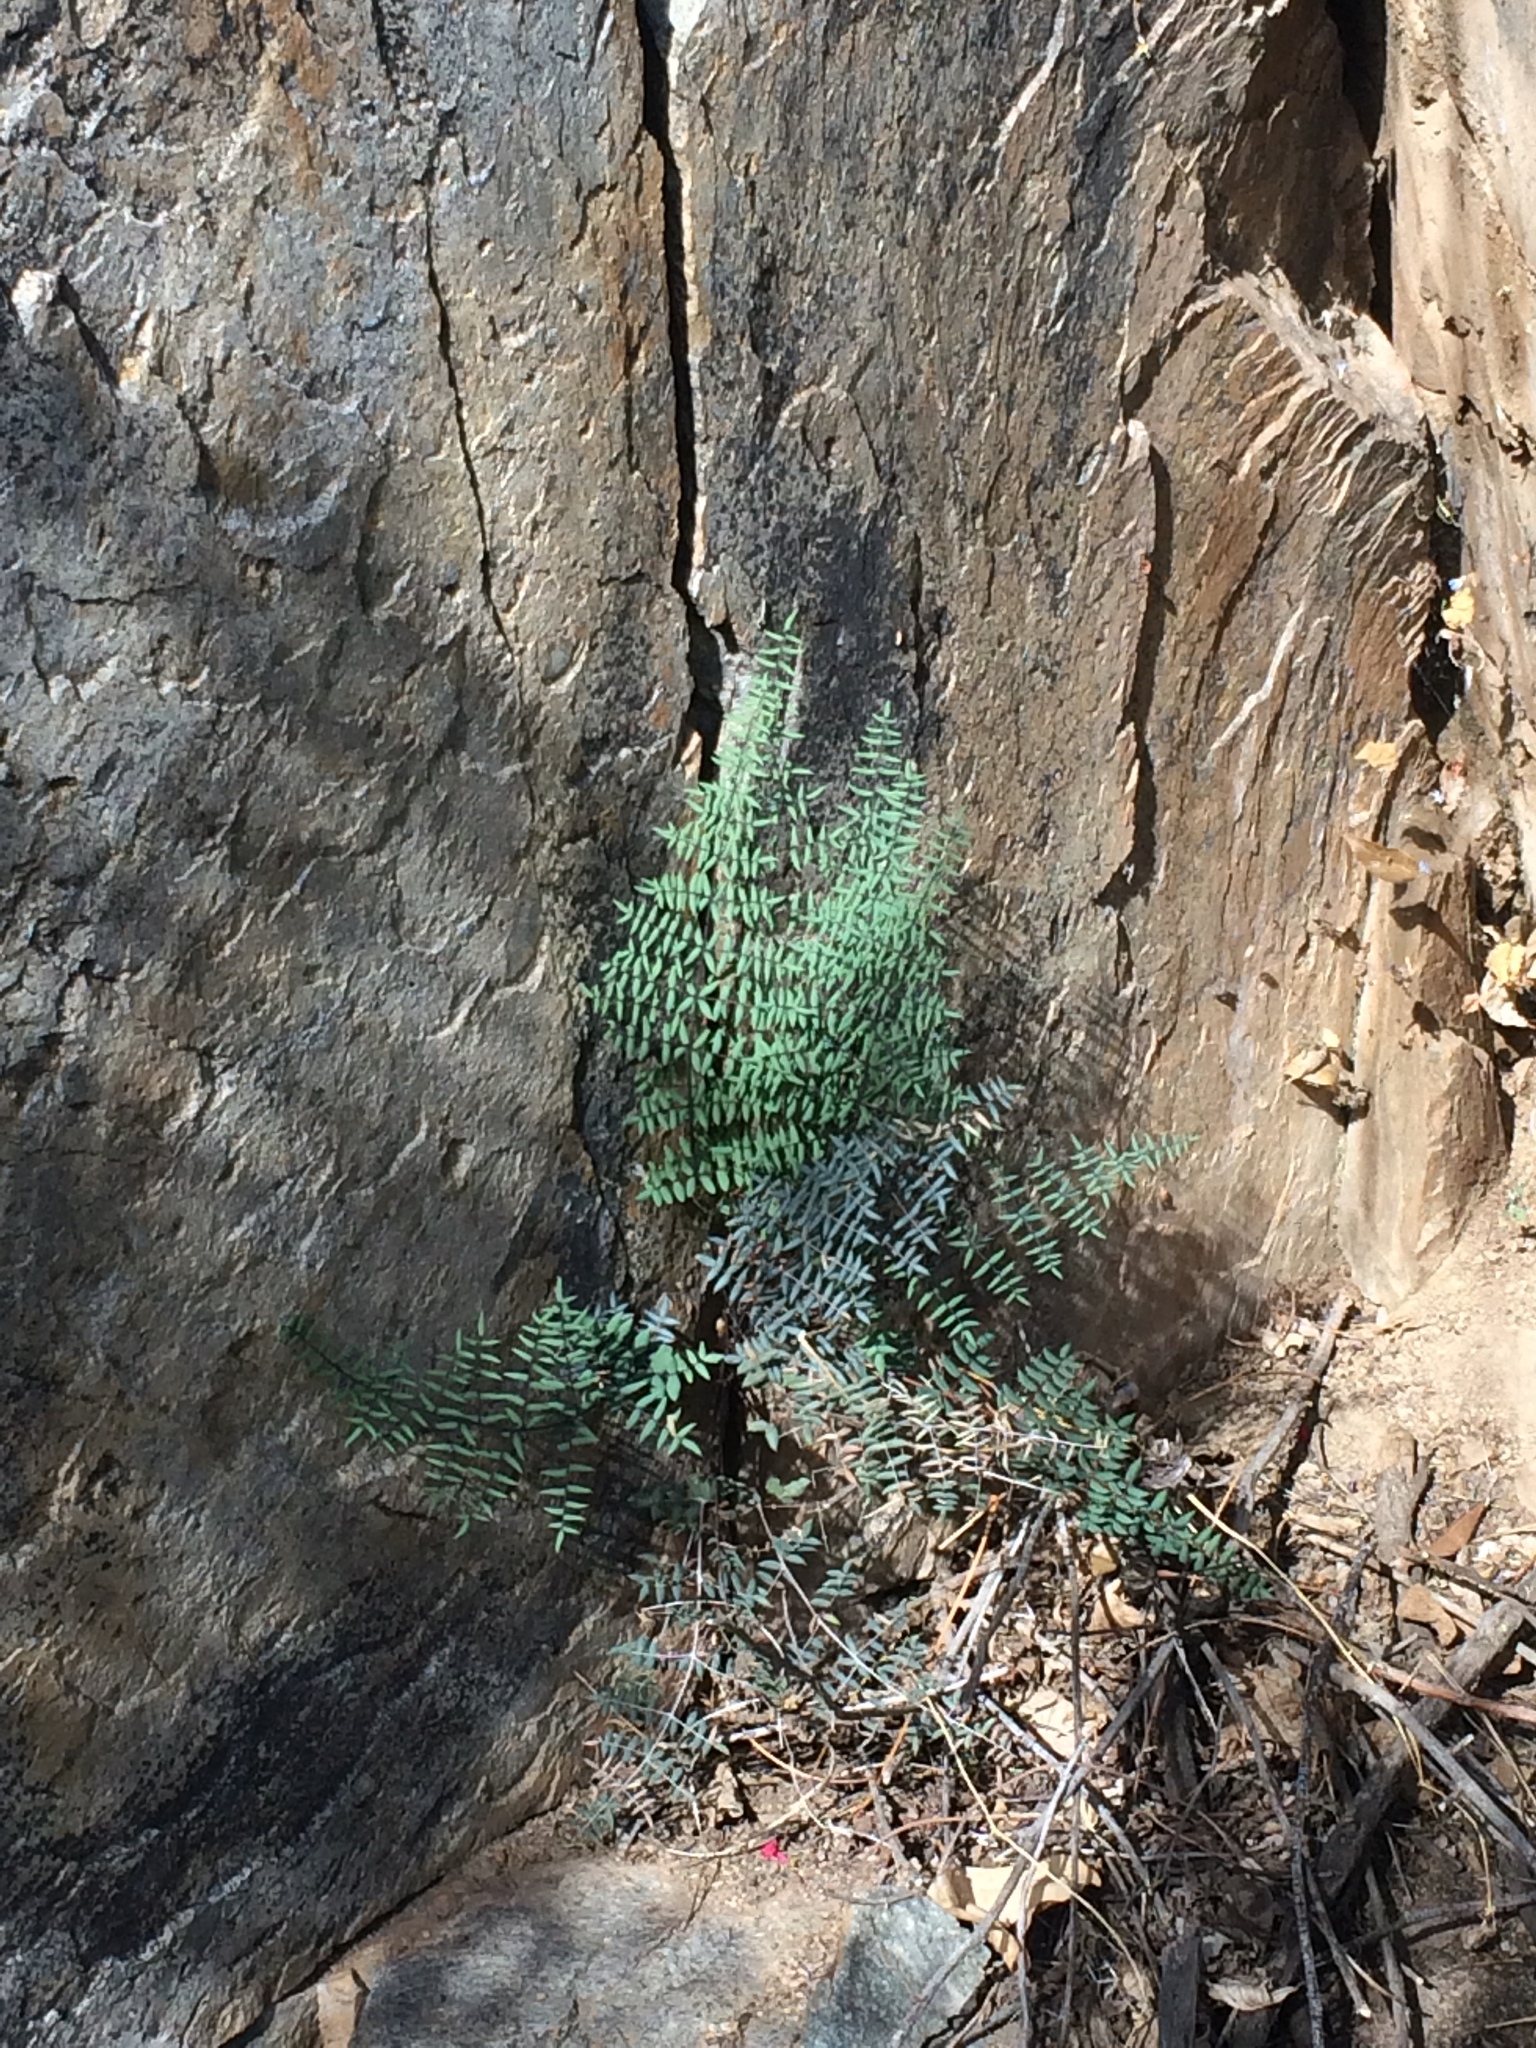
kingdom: Plantae
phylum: Tracheophyta
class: Polypodiopsida
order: Polypodiales
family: Pteridaceae
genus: Pellaea
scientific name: Pellaea truncata
